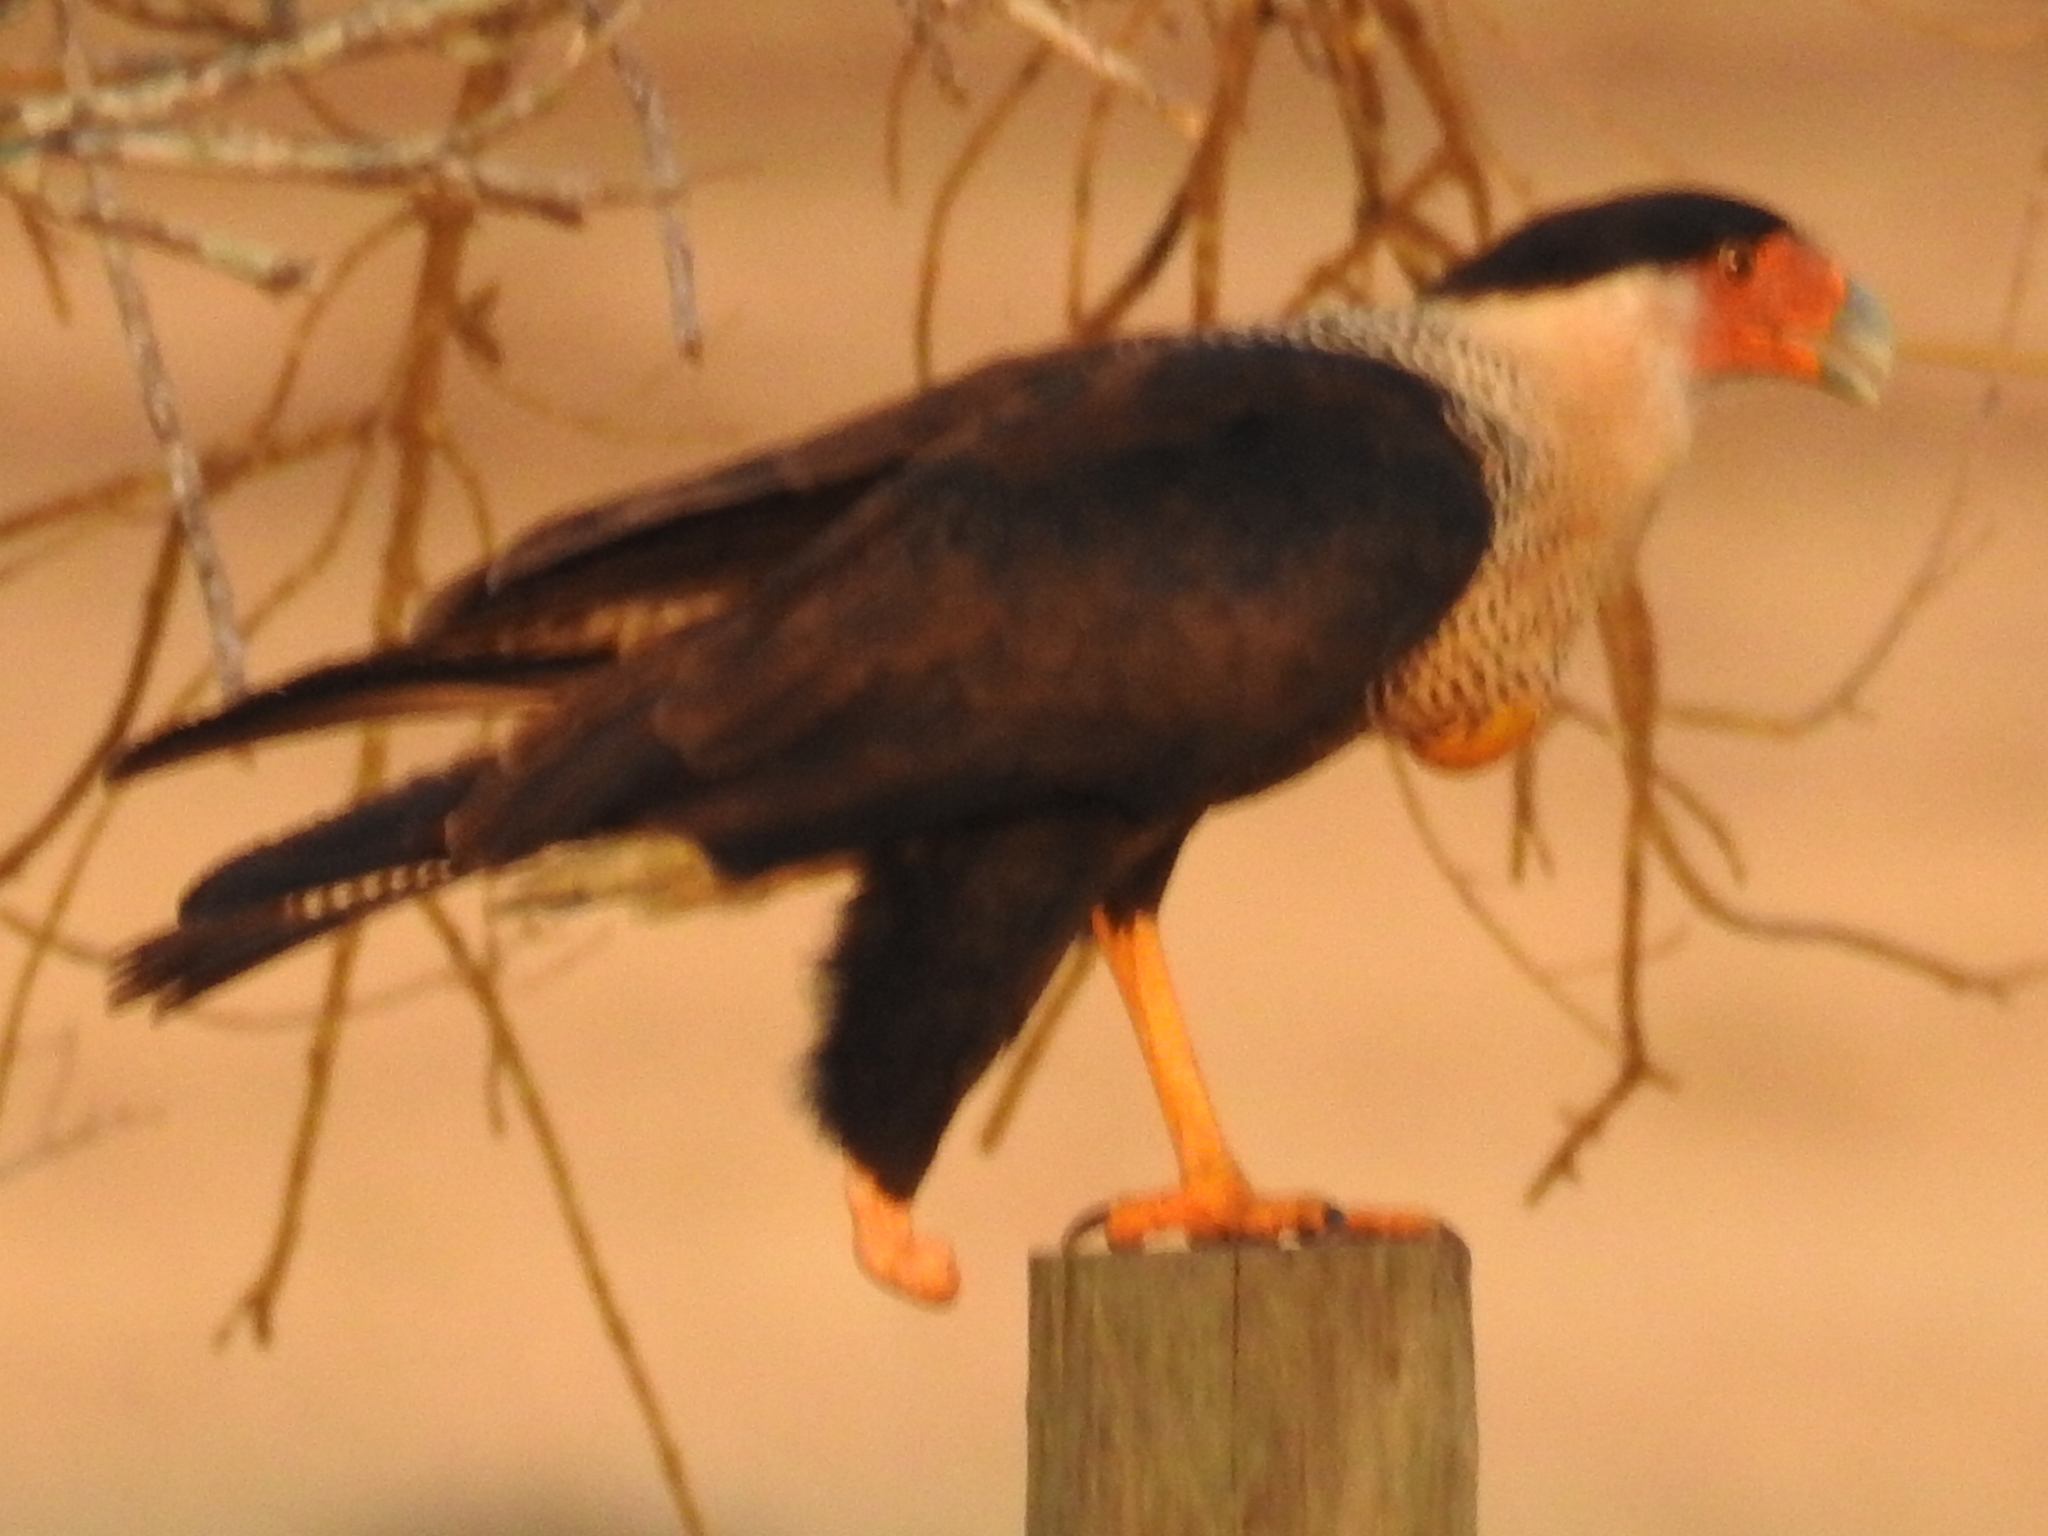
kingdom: Animalia
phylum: Chordata
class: Aves
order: Falconiformes
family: Falconidae
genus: Caracara
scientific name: Caracara plancus
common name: Southern caracara
